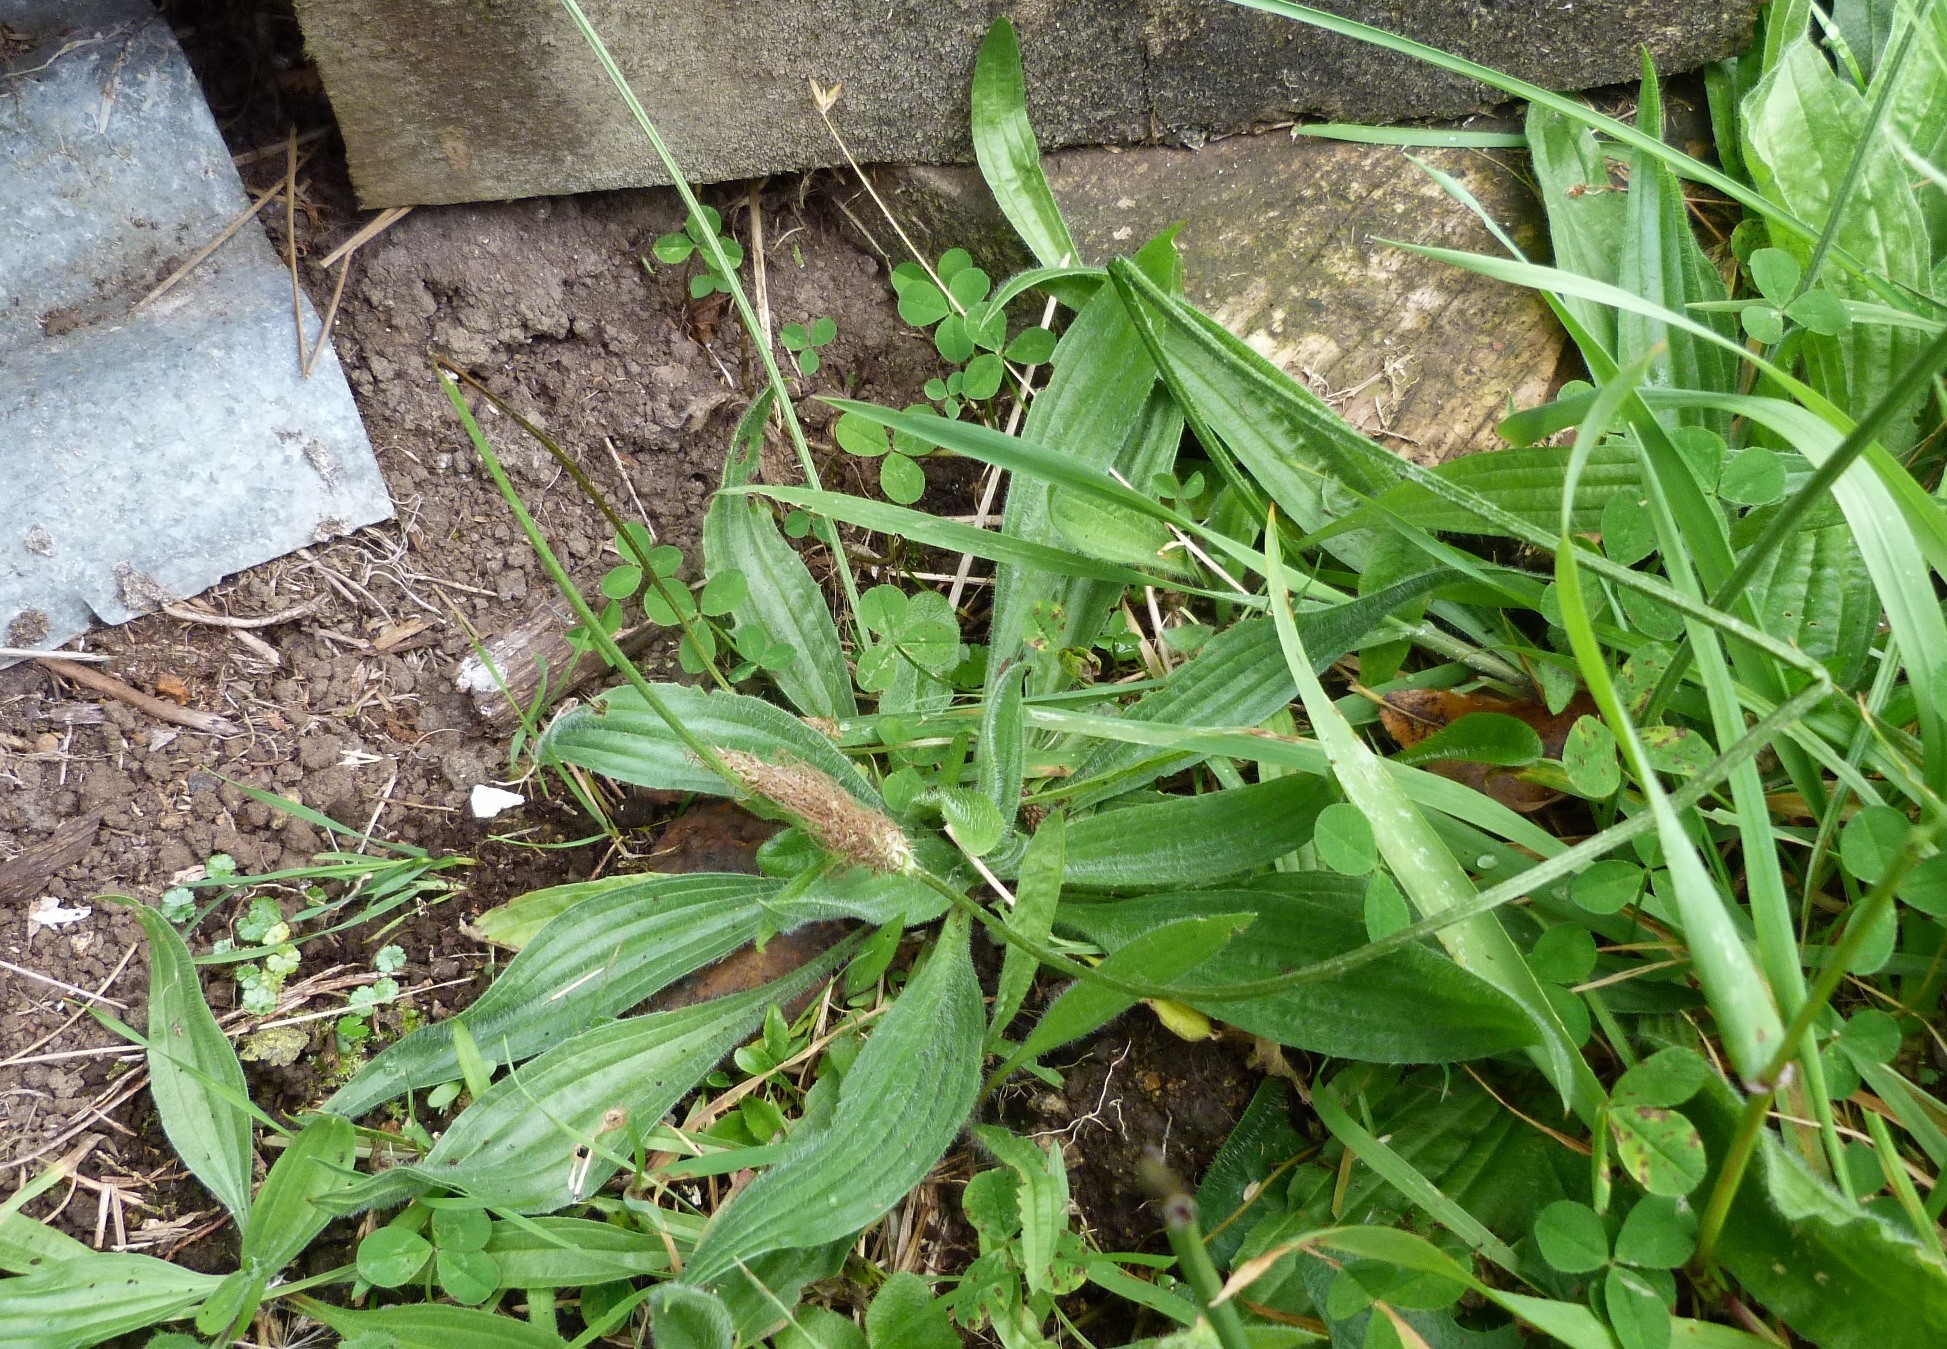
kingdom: Plantae
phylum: Tracheophyta
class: Magnoliopsida
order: Lamiales
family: Plantaginaceae
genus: Plantago
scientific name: Plantago lanceolata
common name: Ribwort plantain
